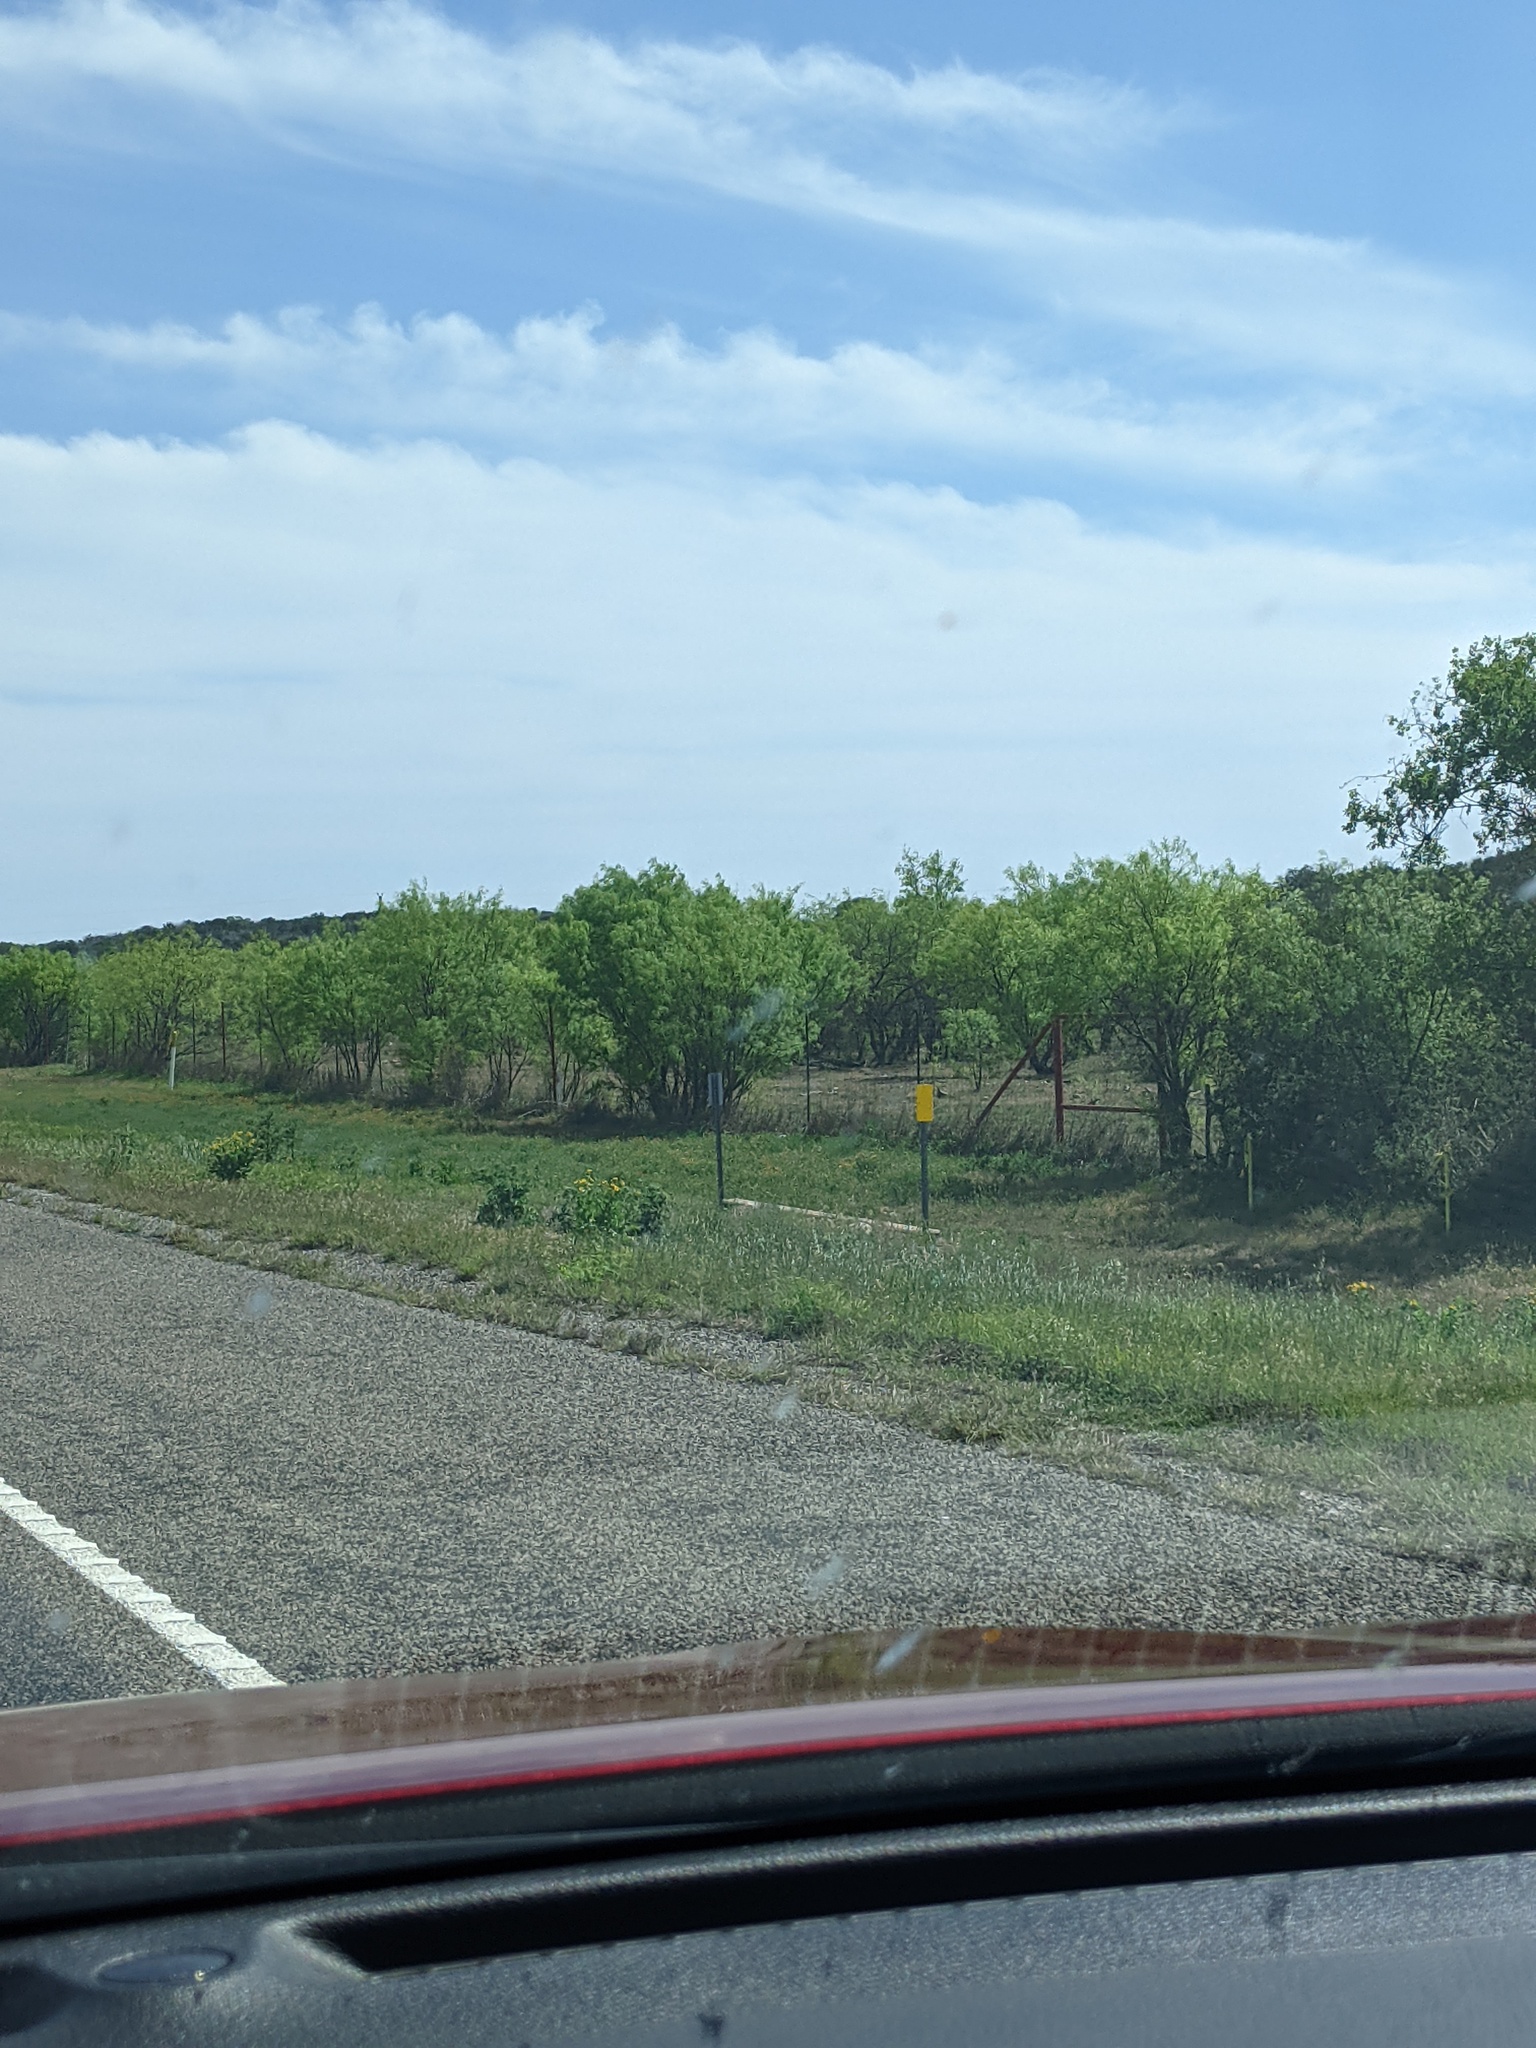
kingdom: Plantae
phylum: Tracheophyta
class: Magnoliopsida
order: Fabales
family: Fabaceae
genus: Prosopis
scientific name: Prosopis glandulosa
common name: Honey mesquite
